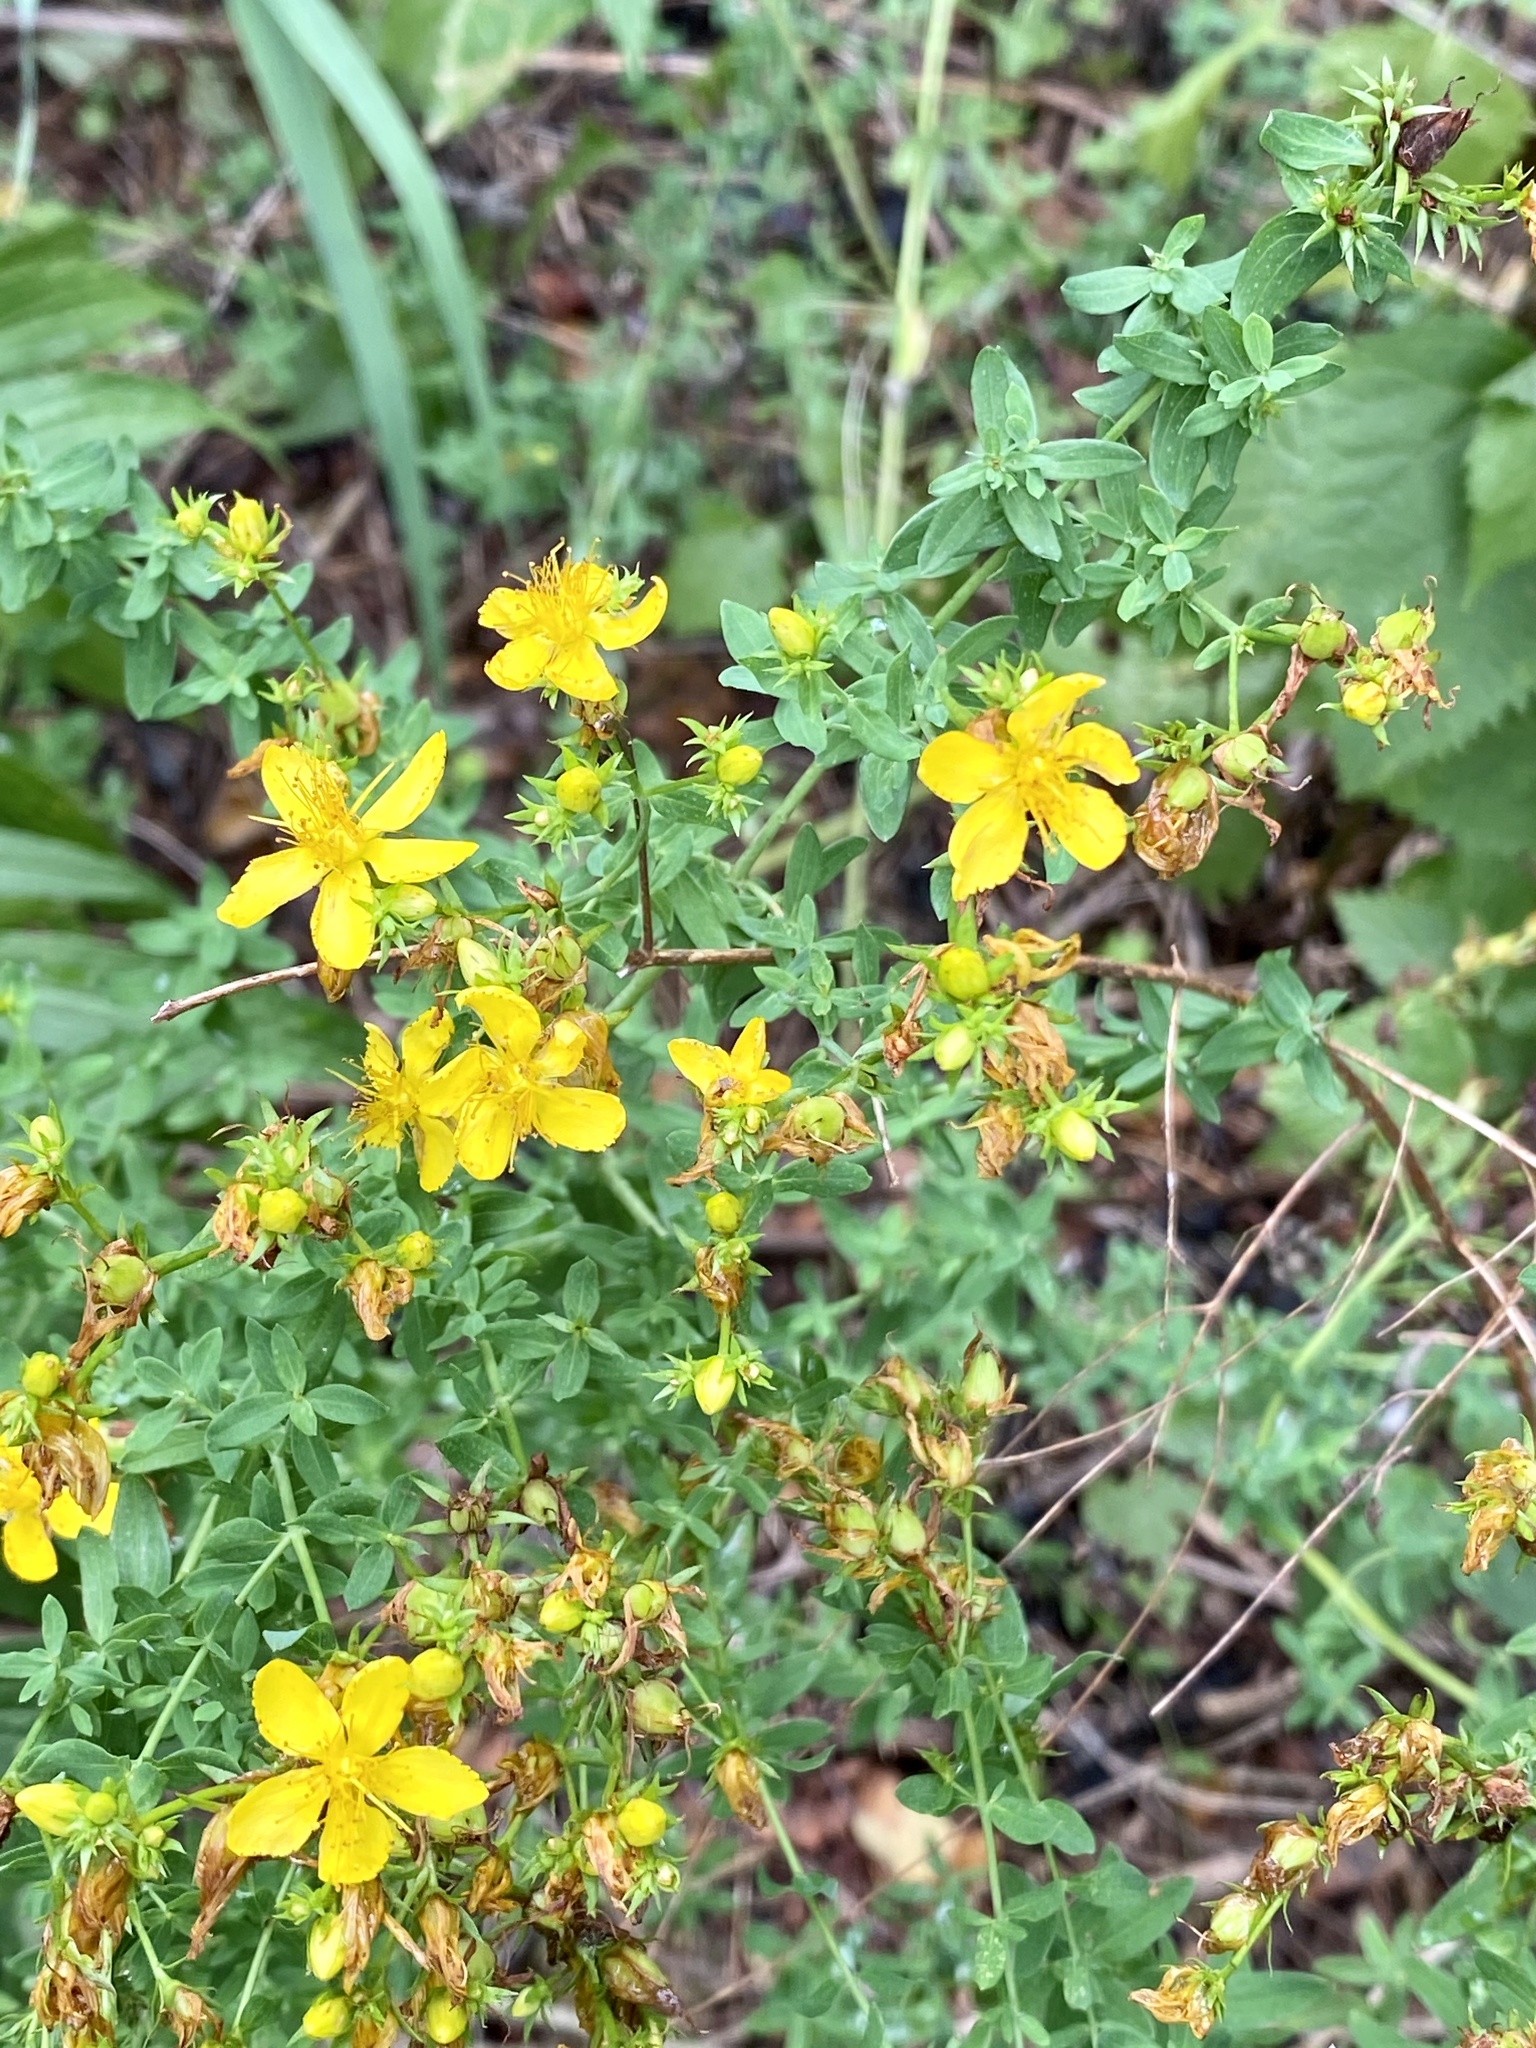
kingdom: Plantae
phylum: Tracheophyta
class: Magnoliopsida
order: Malpighiales
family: Hypericaceae
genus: Hypericum
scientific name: Hypericum perforatum
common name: Common st. johnswort
